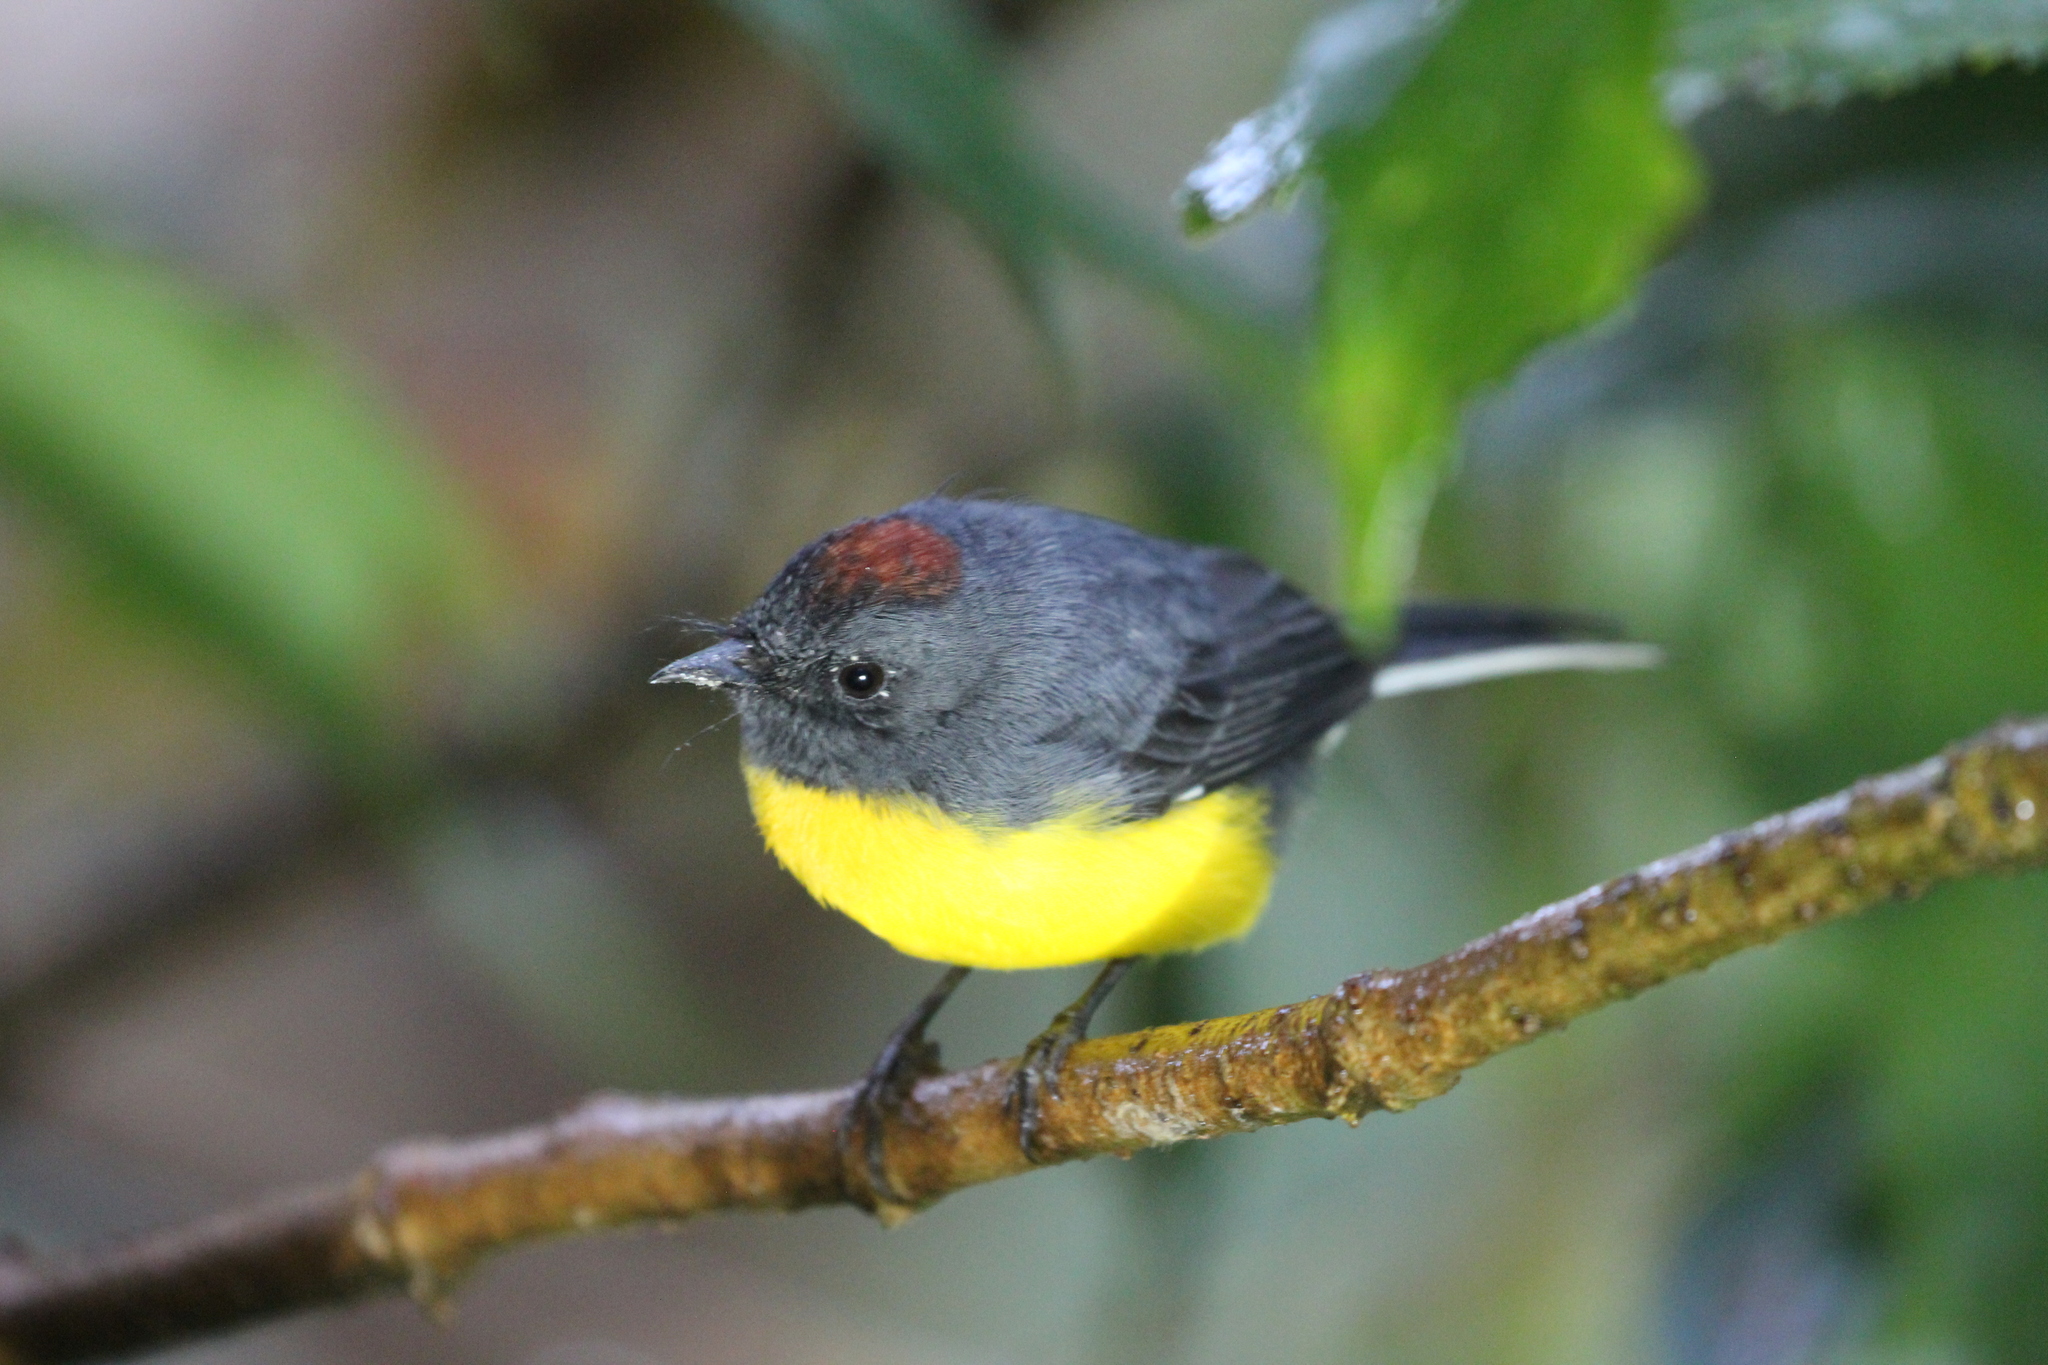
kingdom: Animalia
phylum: Chordata
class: Aves
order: Passeriformes
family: Parulidae
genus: Myioborus
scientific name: Myioborus miniatus
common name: Slate-throated redstart
